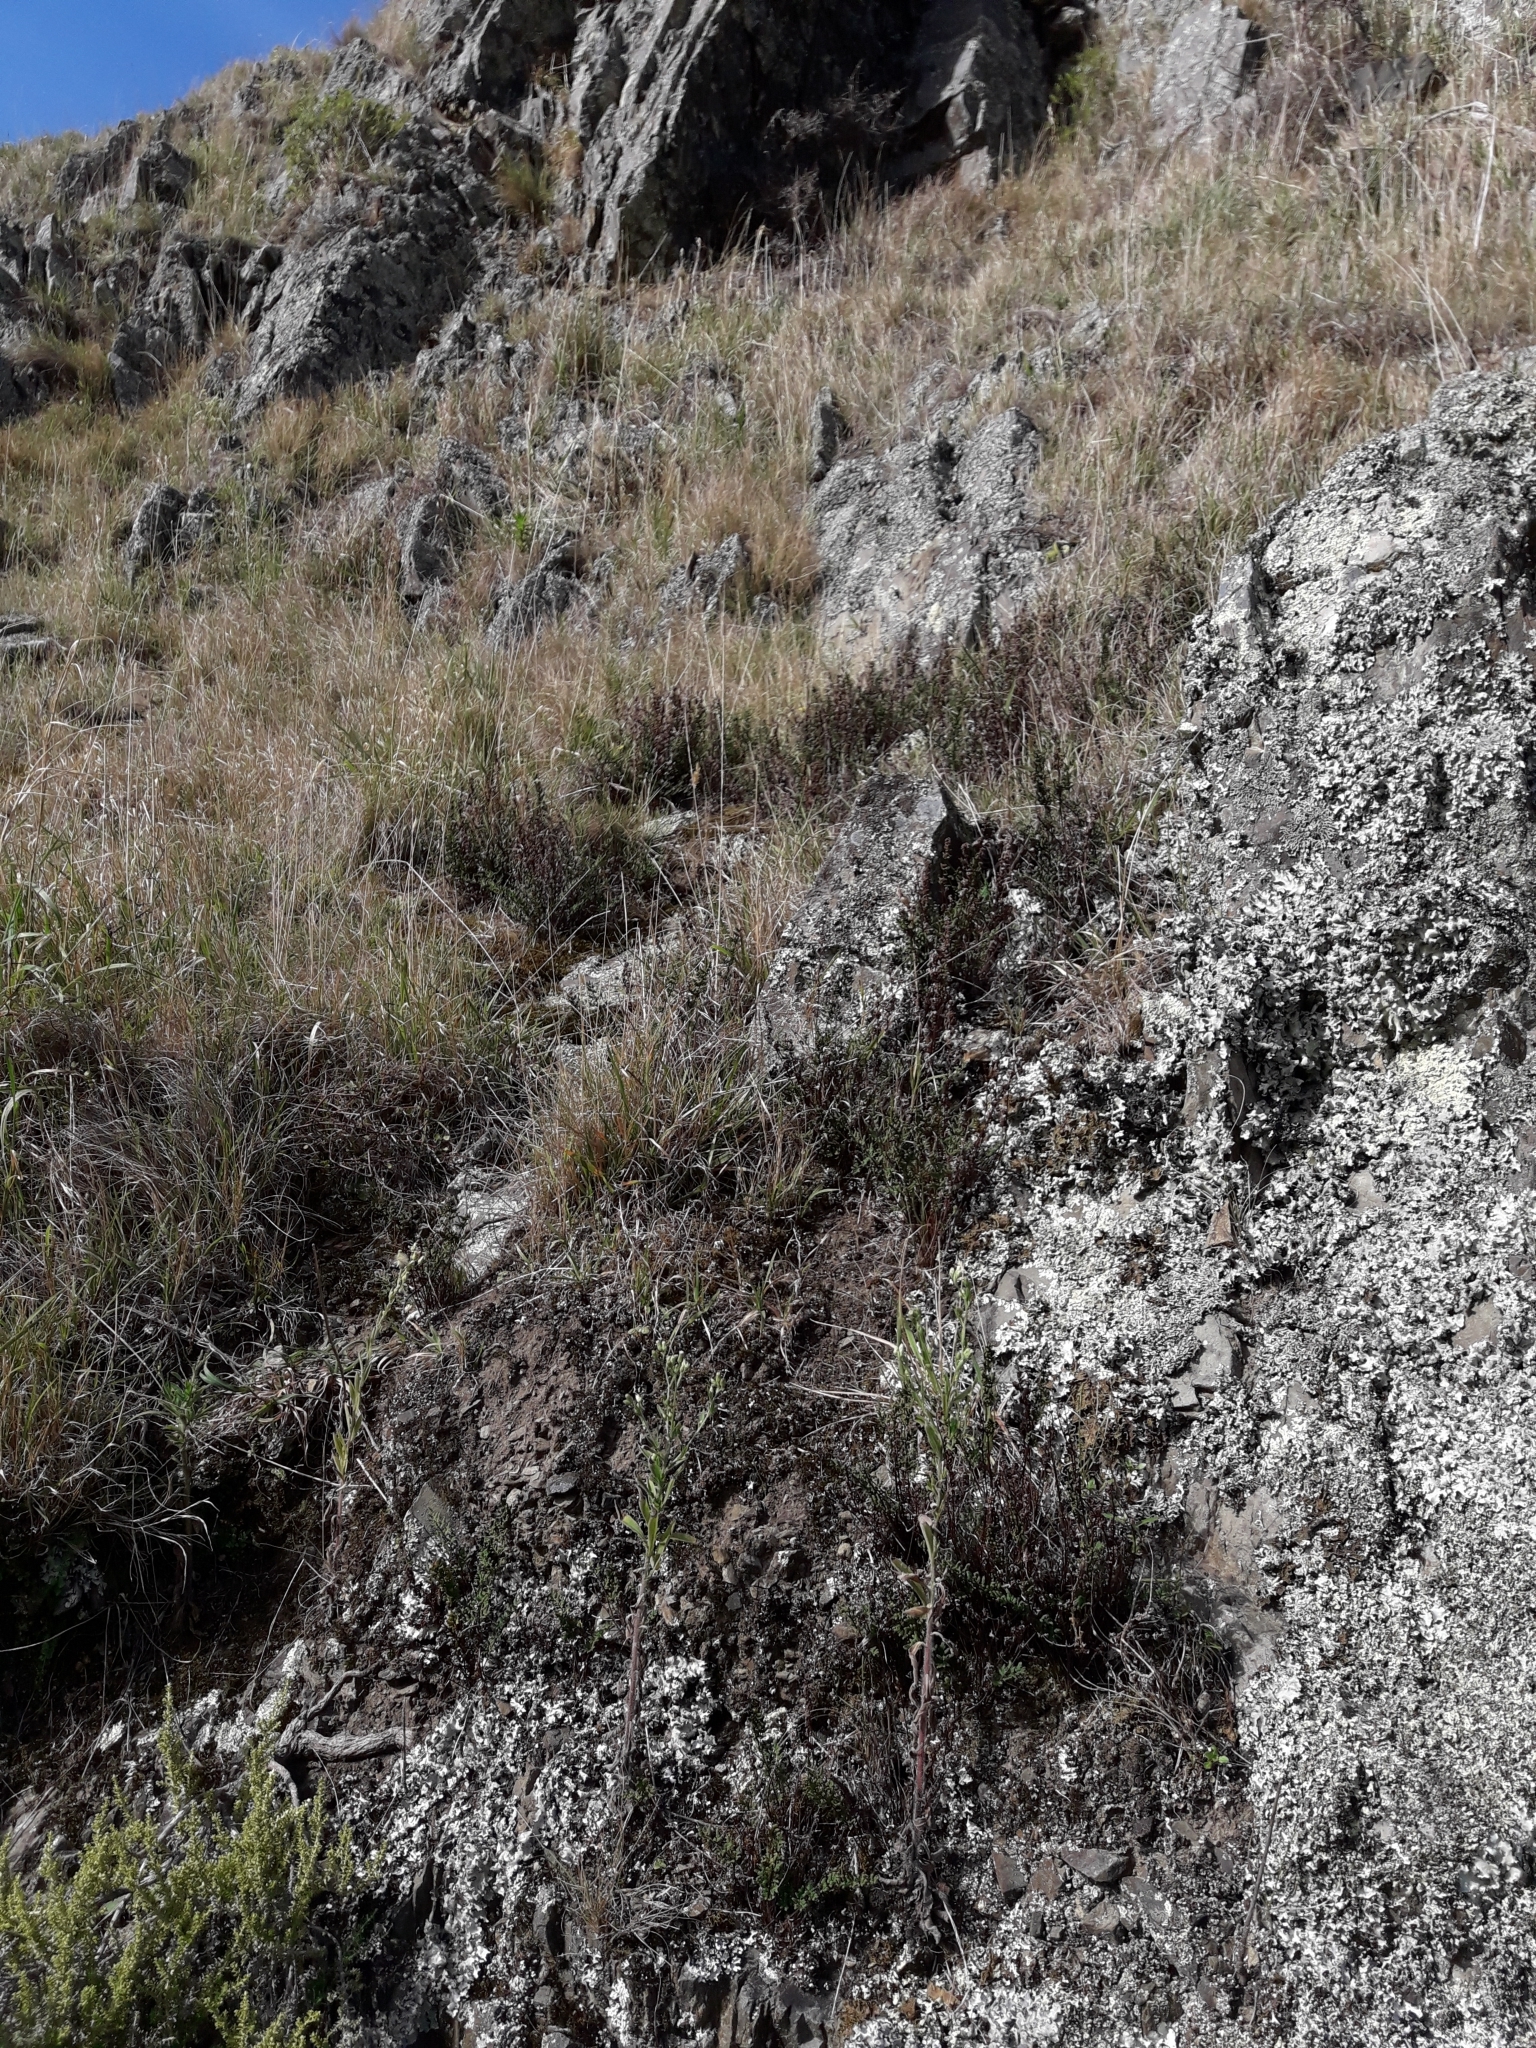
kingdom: Plantae
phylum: Tracheophyta
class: Polypodiopsida
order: Polypodiales
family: Pteridaceae
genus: Cheilanthes
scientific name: Cheilanthes sieberi
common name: Mulga fern
